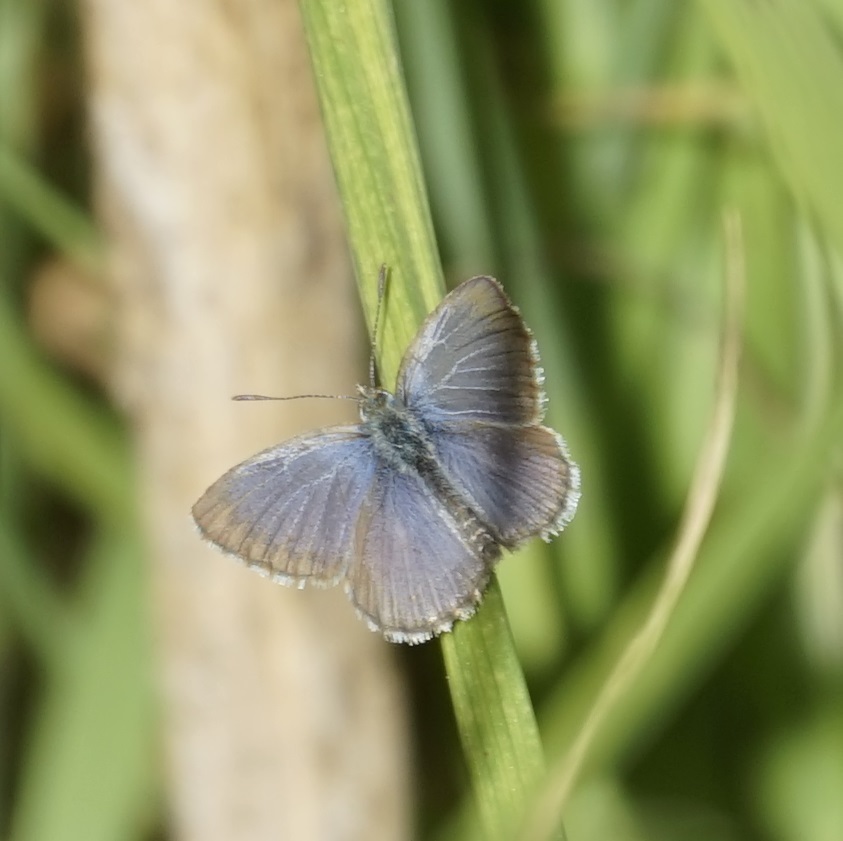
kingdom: Animalia
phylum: Arthropoda
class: Insecta
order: Lepidoptera
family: Lycaenidae
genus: Zizina
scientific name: Zizina otis
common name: Lesser grass blue
